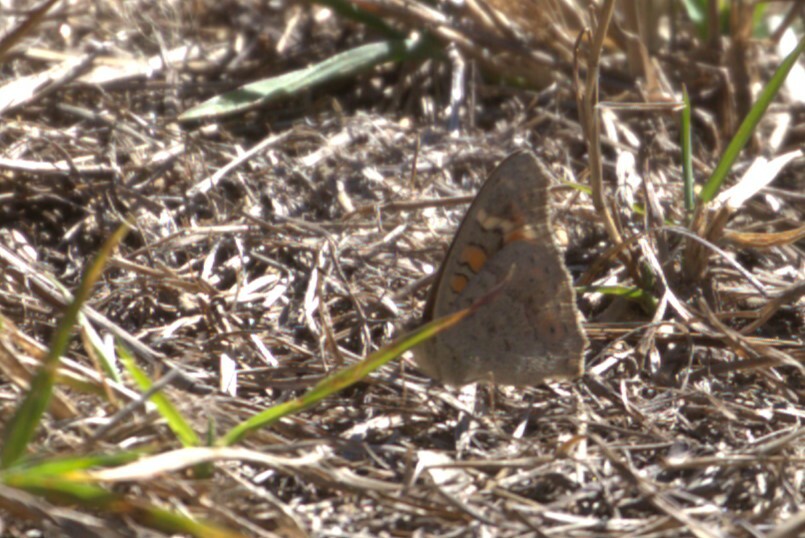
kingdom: Animalia
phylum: Arthropoda
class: Insecta
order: Lepidoptera
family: Nymphalidae
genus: Junonia
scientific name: Junonia villida
